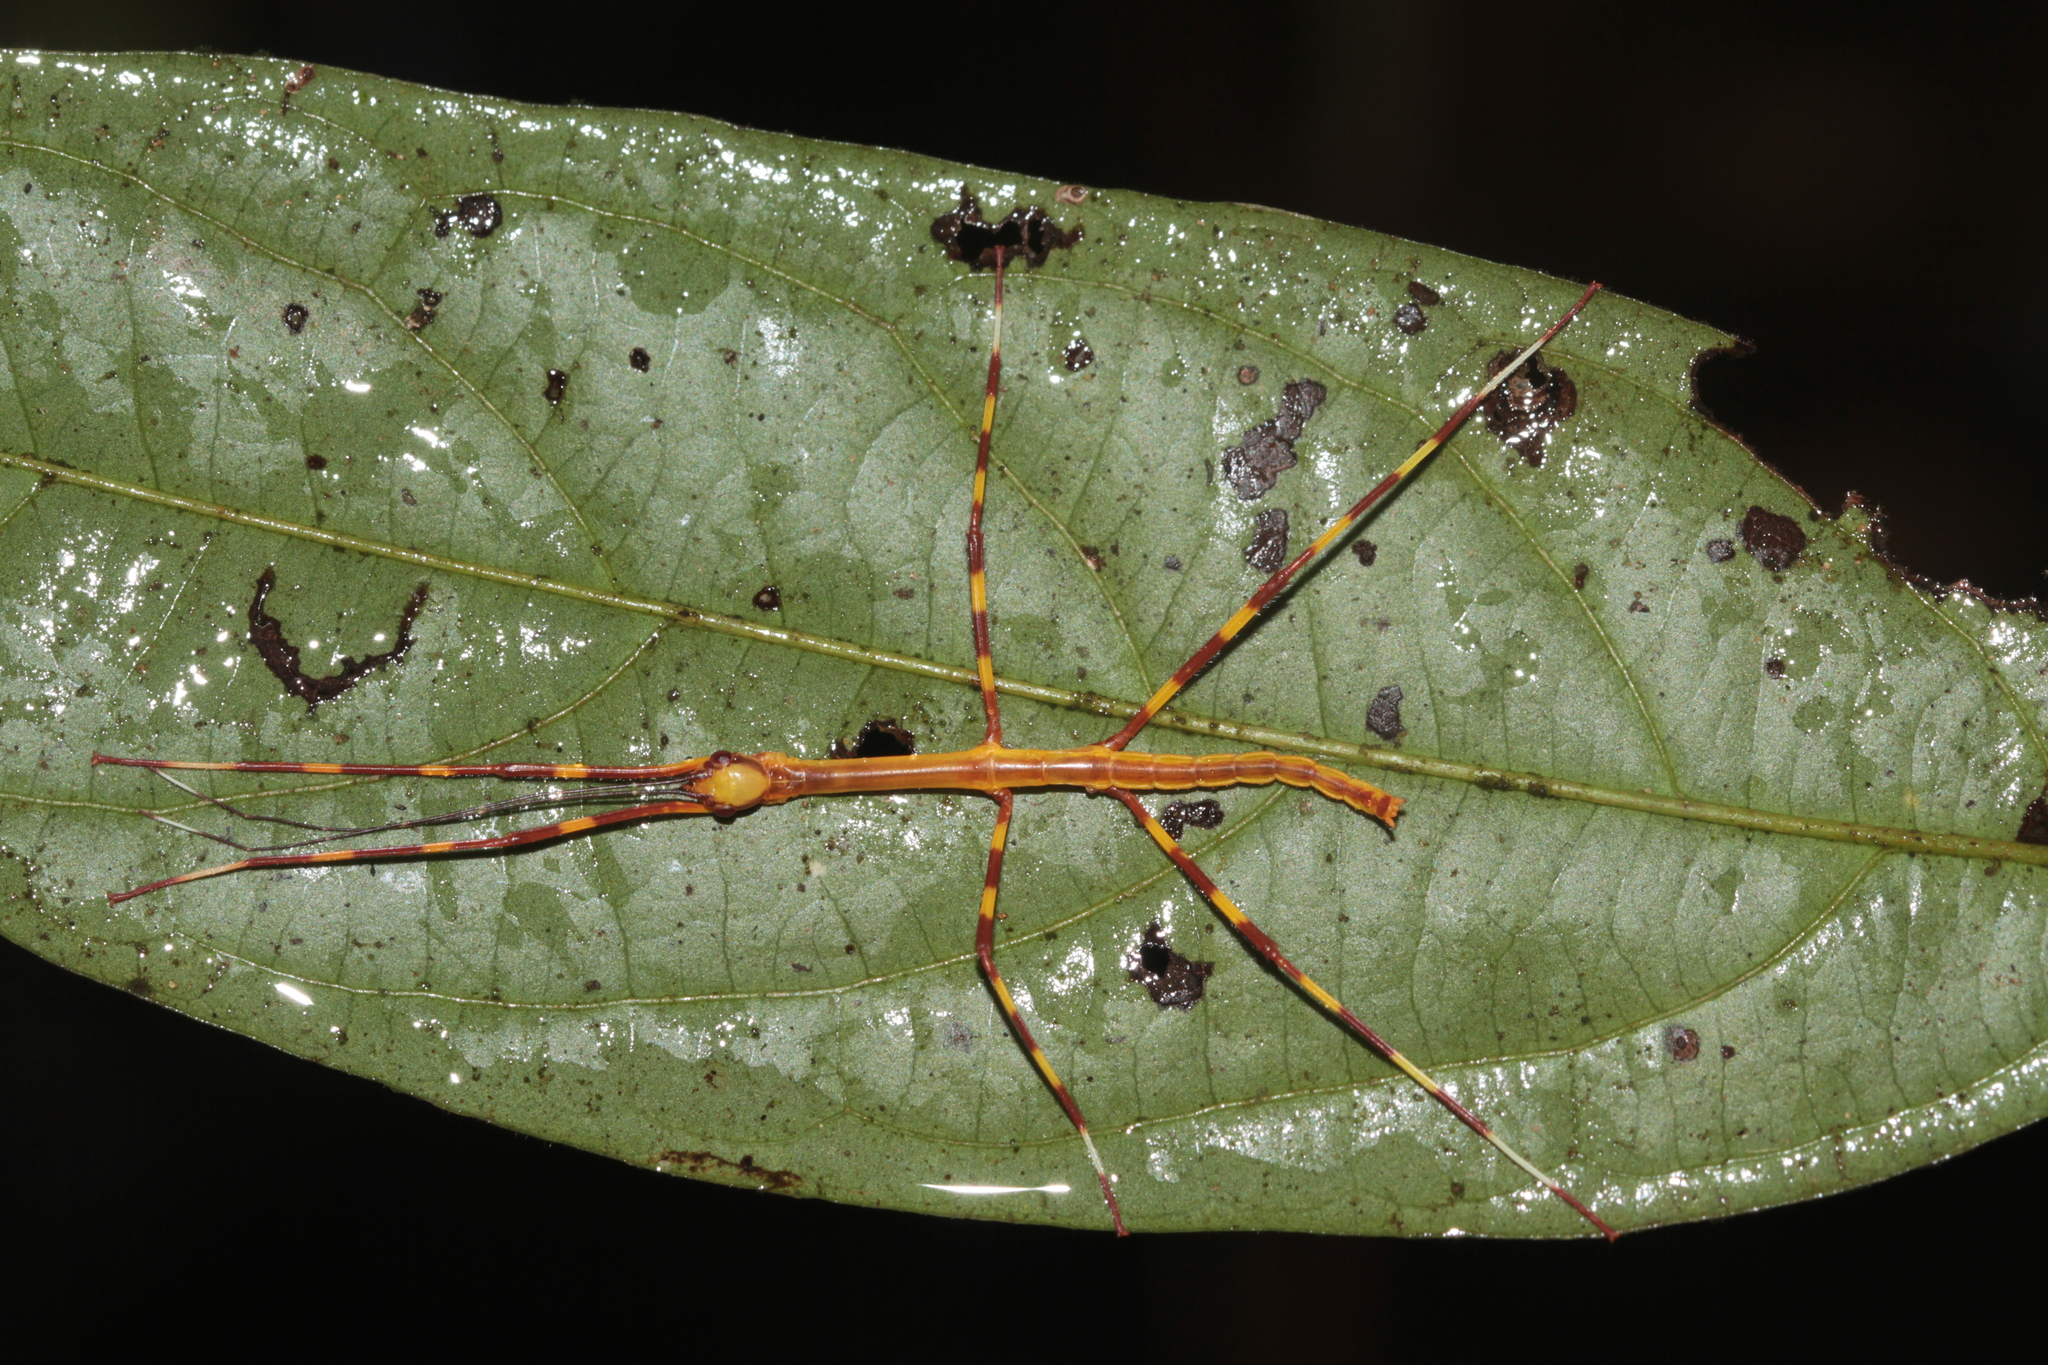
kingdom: Animalia
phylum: Arthropoda
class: Insecta
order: Phasmida
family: Phasmatidae
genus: Cranidium
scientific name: Cranidium gibbosum
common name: Hump-backed stick insect
